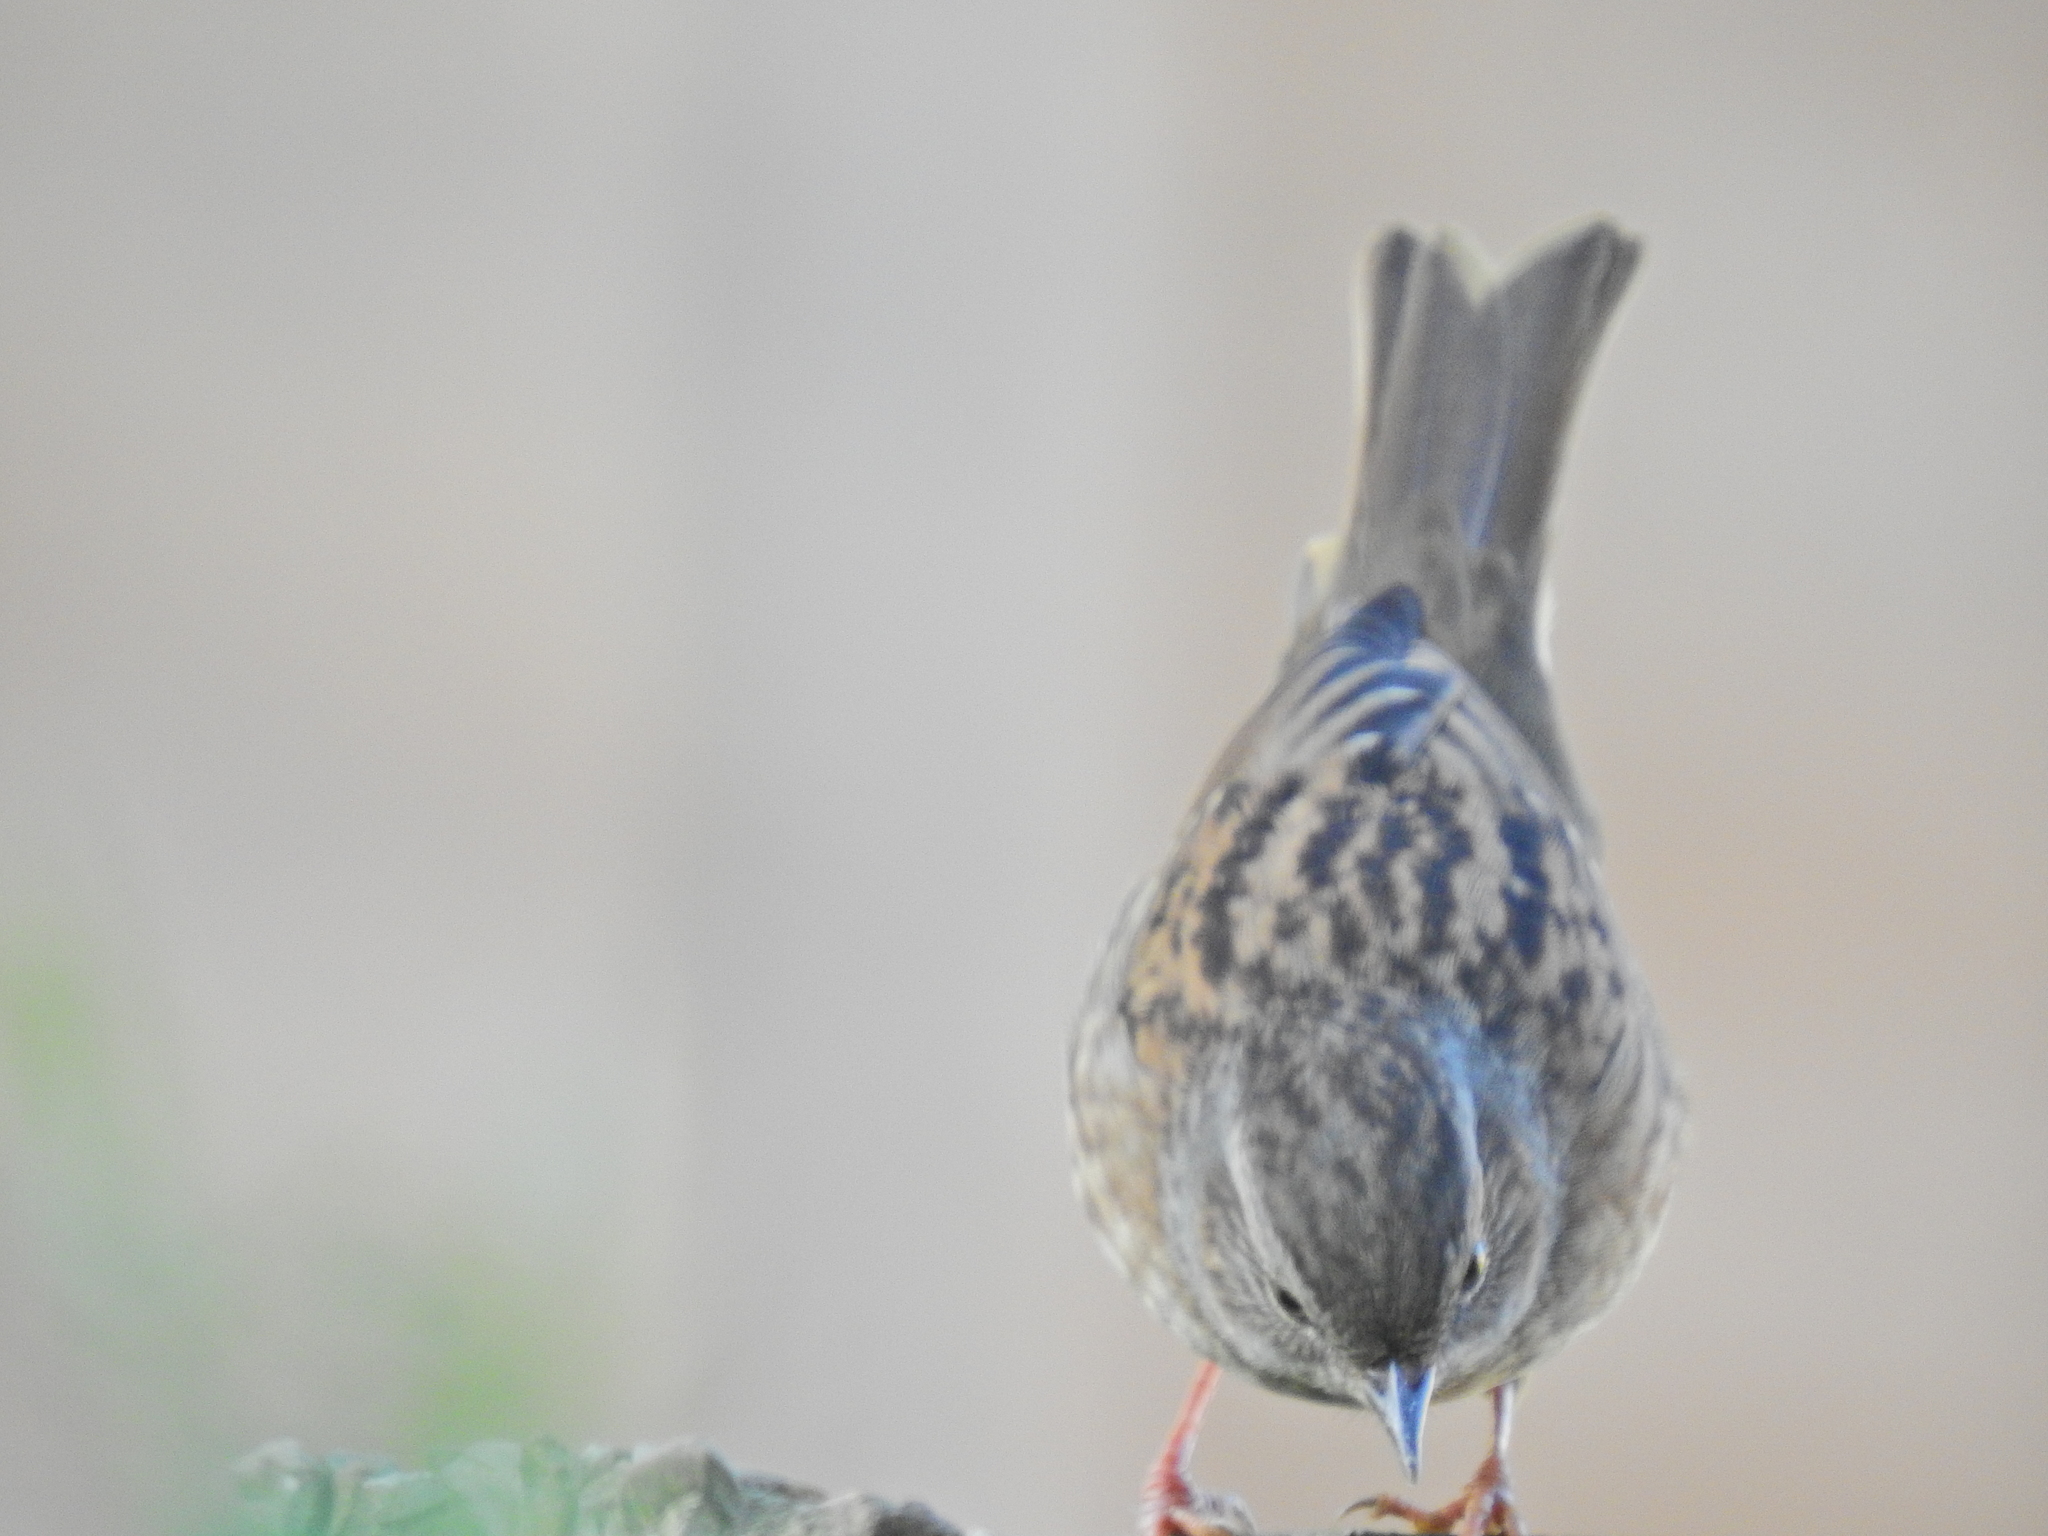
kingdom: Animalia
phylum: Chordata
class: Aves
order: Passeriformes
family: Prunellidae
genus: Prunella
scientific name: Prunella modularis
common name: Dunnock
